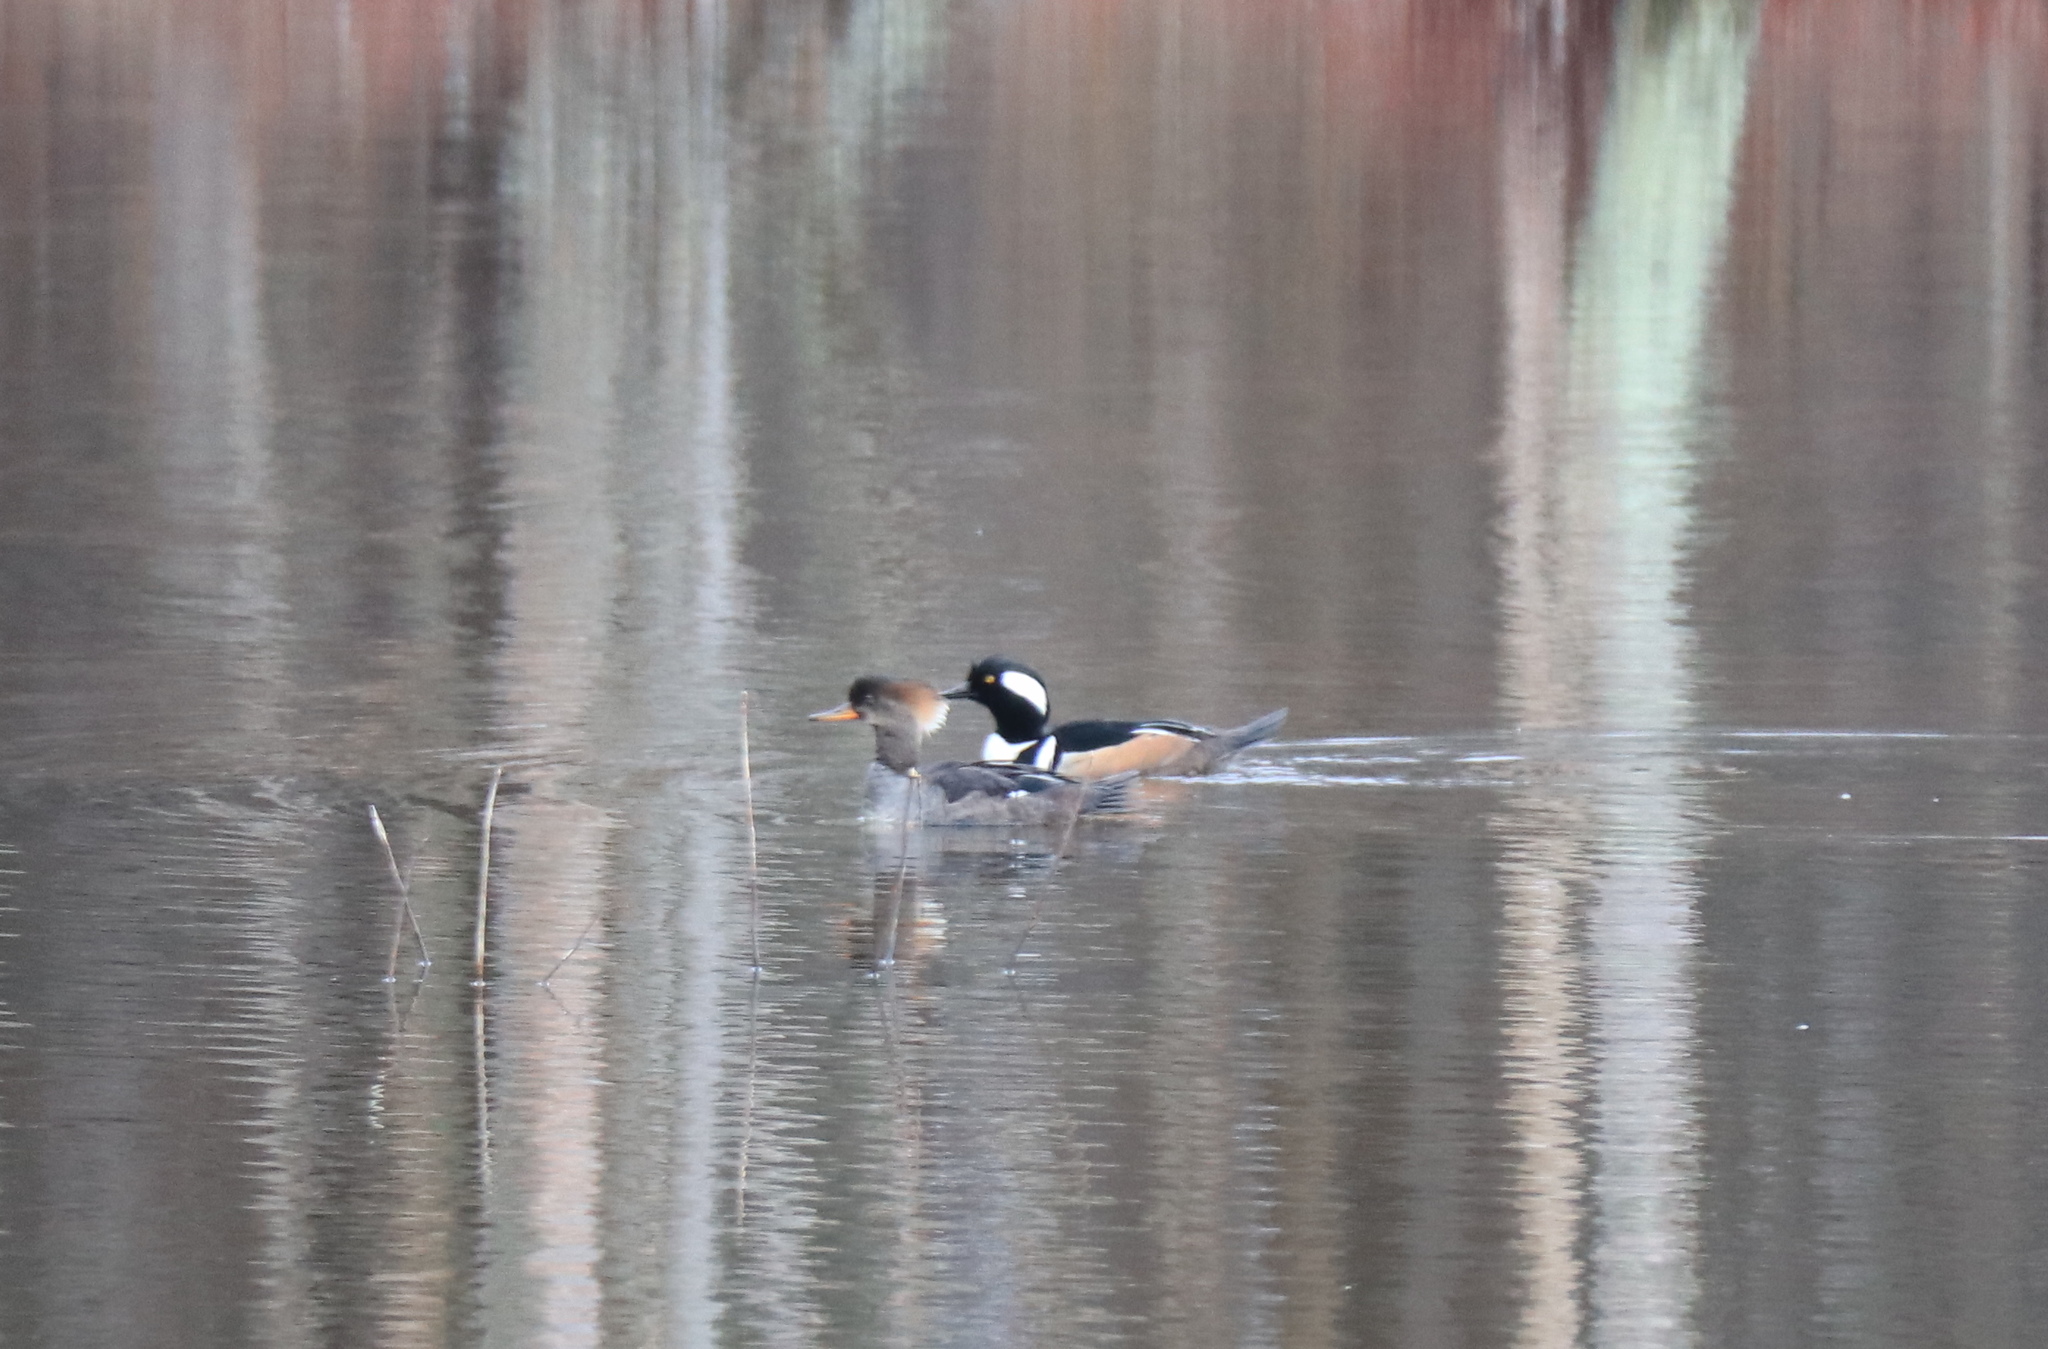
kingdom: Animalia
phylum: Chordata
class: Aves
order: Anseriformes
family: Anatidae
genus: Lophodytes
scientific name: Lophodytes cucullatus
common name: Hooded merganser
